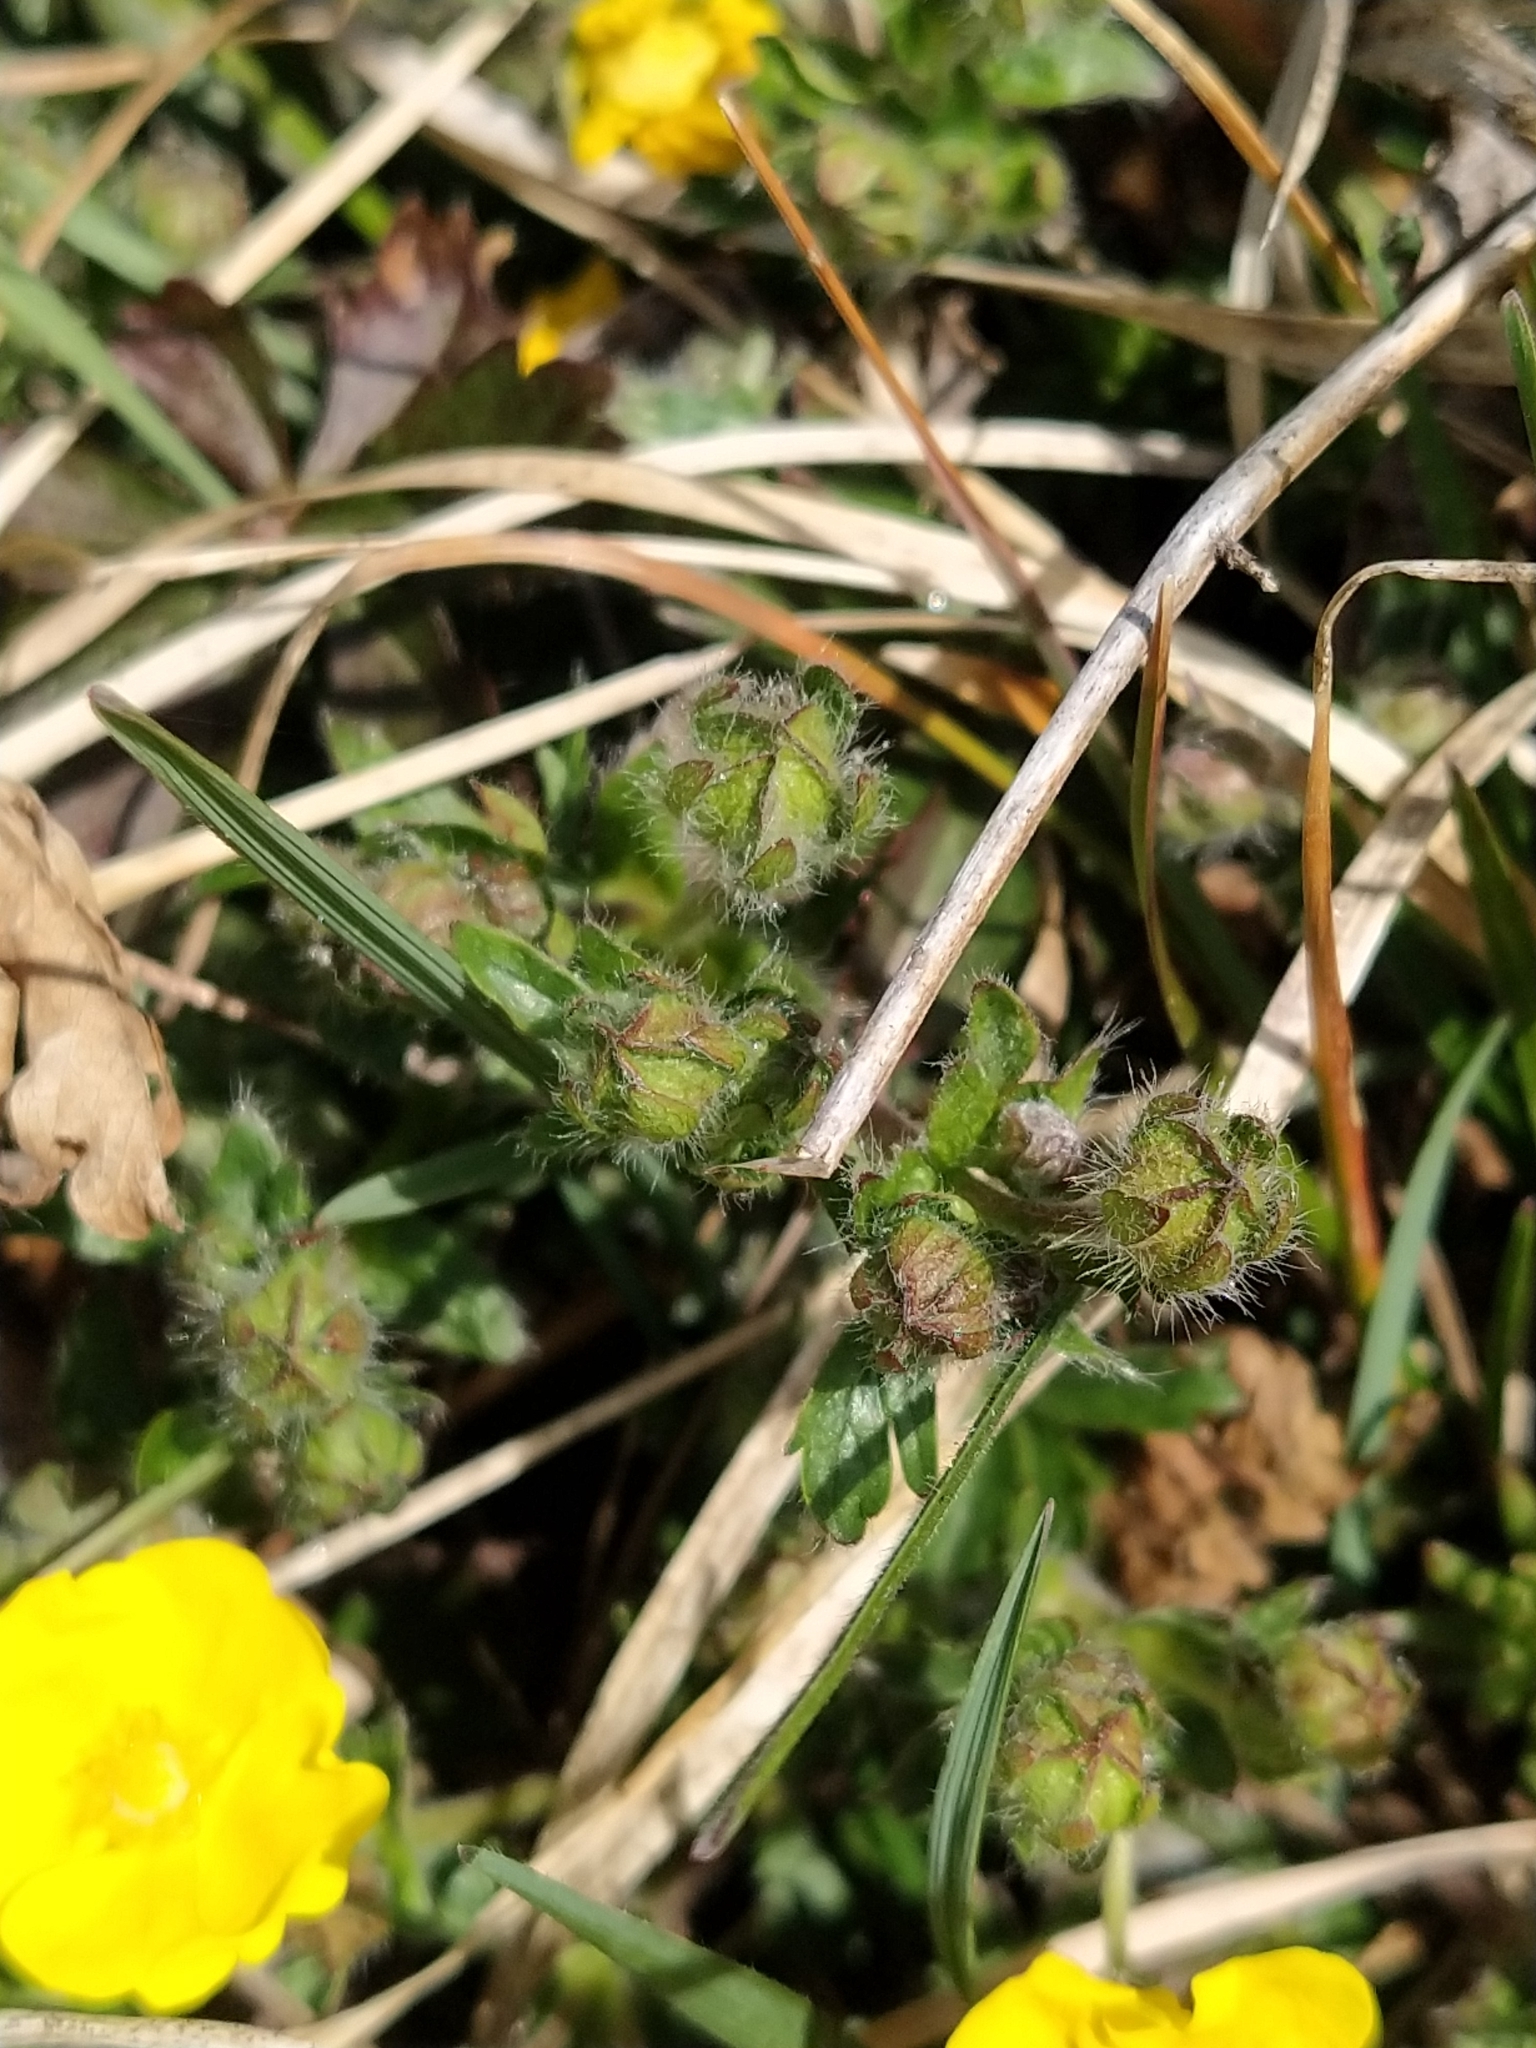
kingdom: Plantae
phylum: Tracheophyta
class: Magnoliopsida
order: Rosales
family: Rosaceae
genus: Potentilla
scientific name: Potentilla verna
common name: Spring cinquefoil
